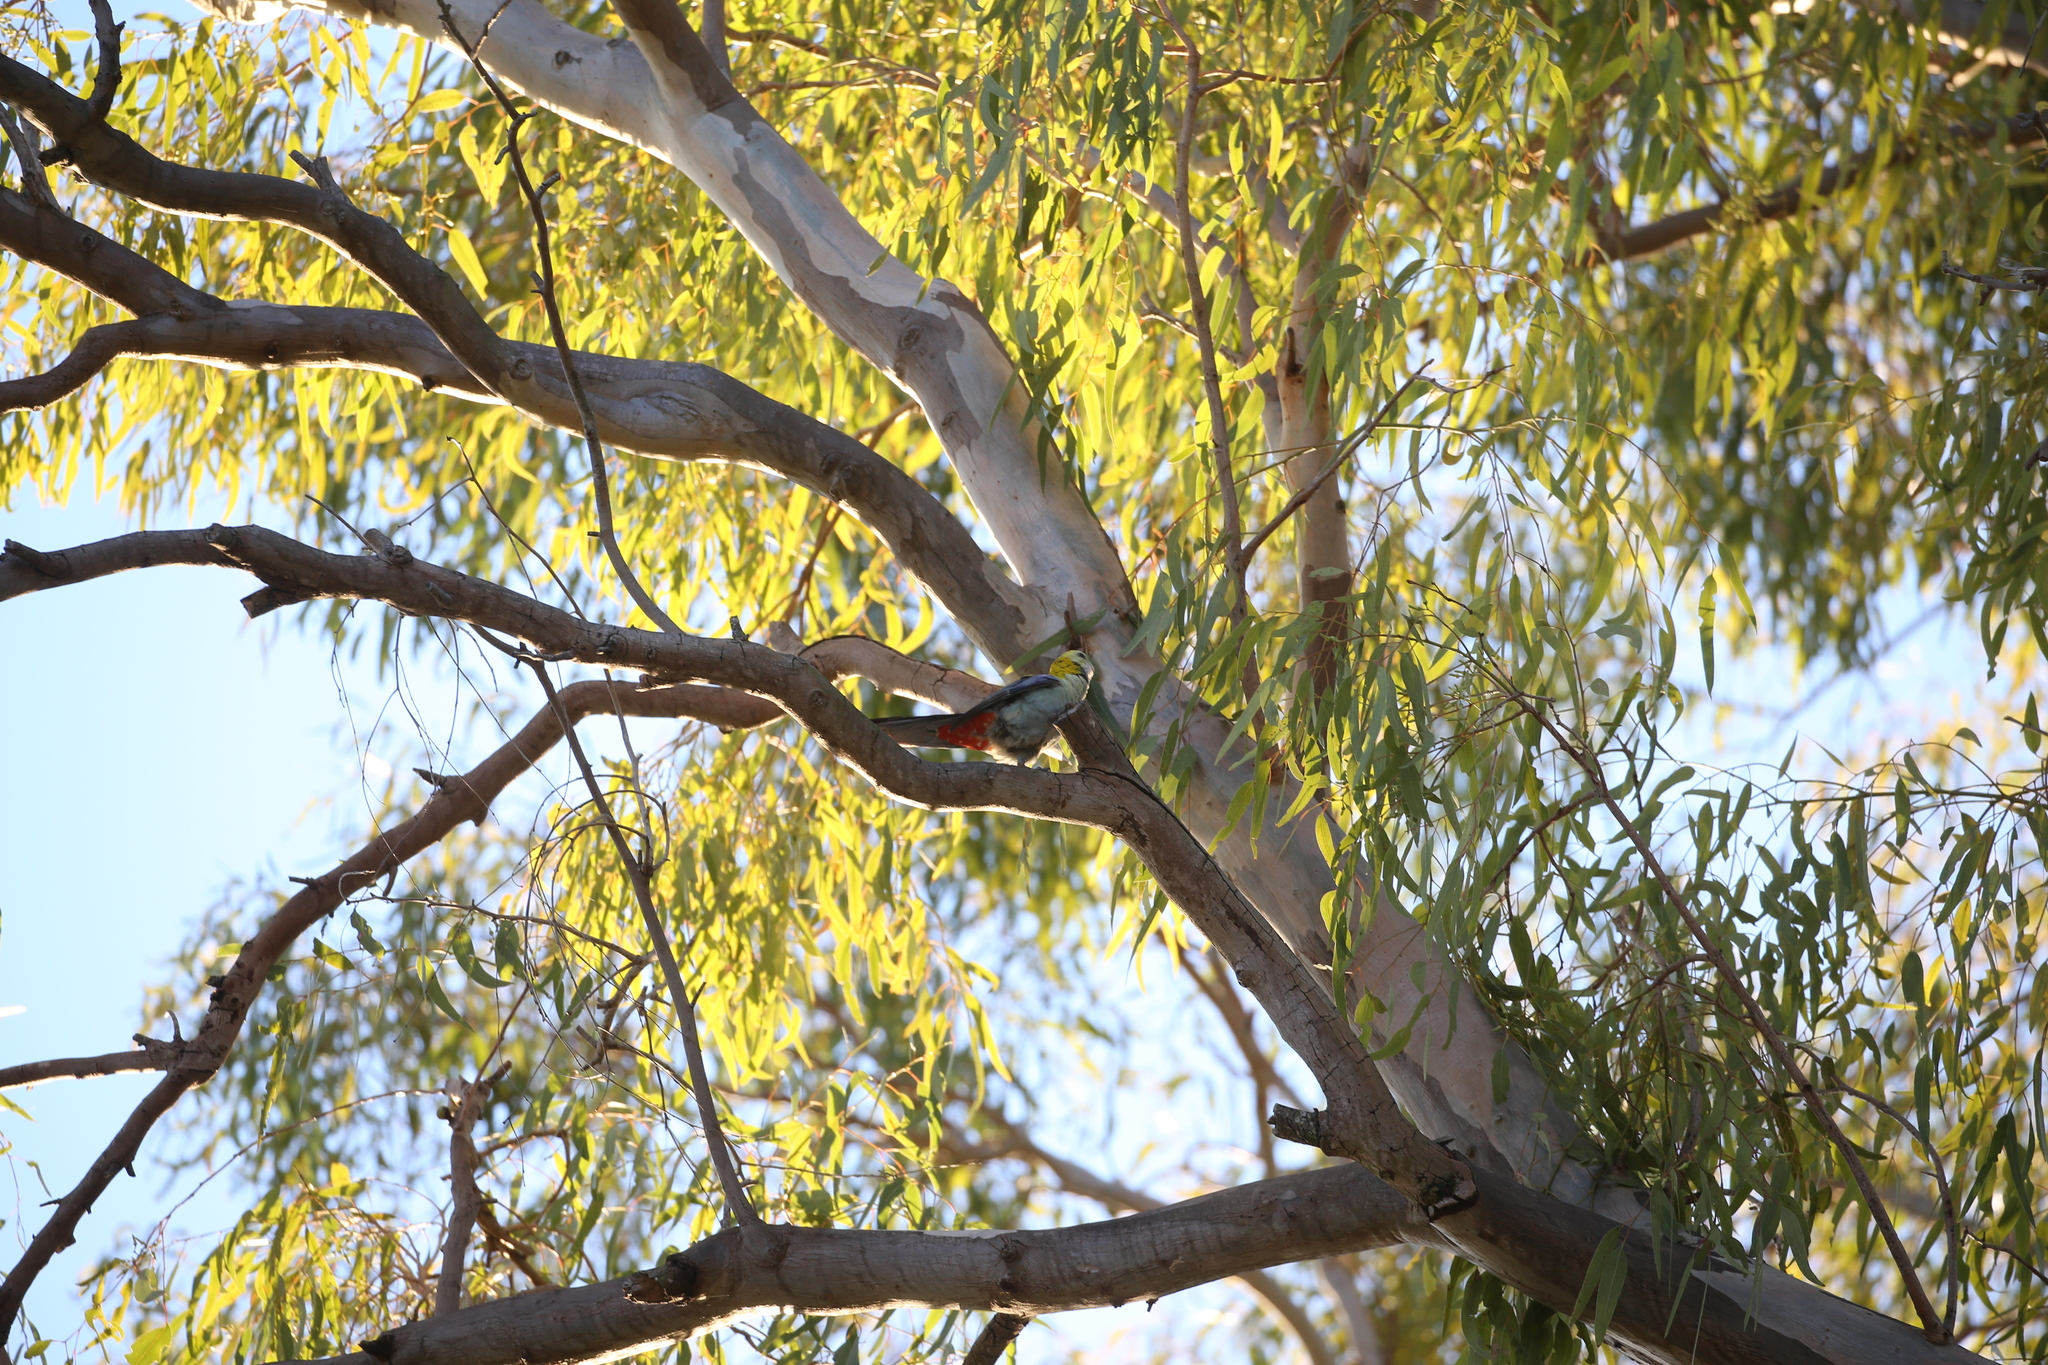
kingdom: Animalia
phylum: Chordata
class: Aves
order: Psittaciformes
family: Psittacidae
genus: Platycercus
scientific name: Platycercus adscitus
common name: Pale-headed rosella
